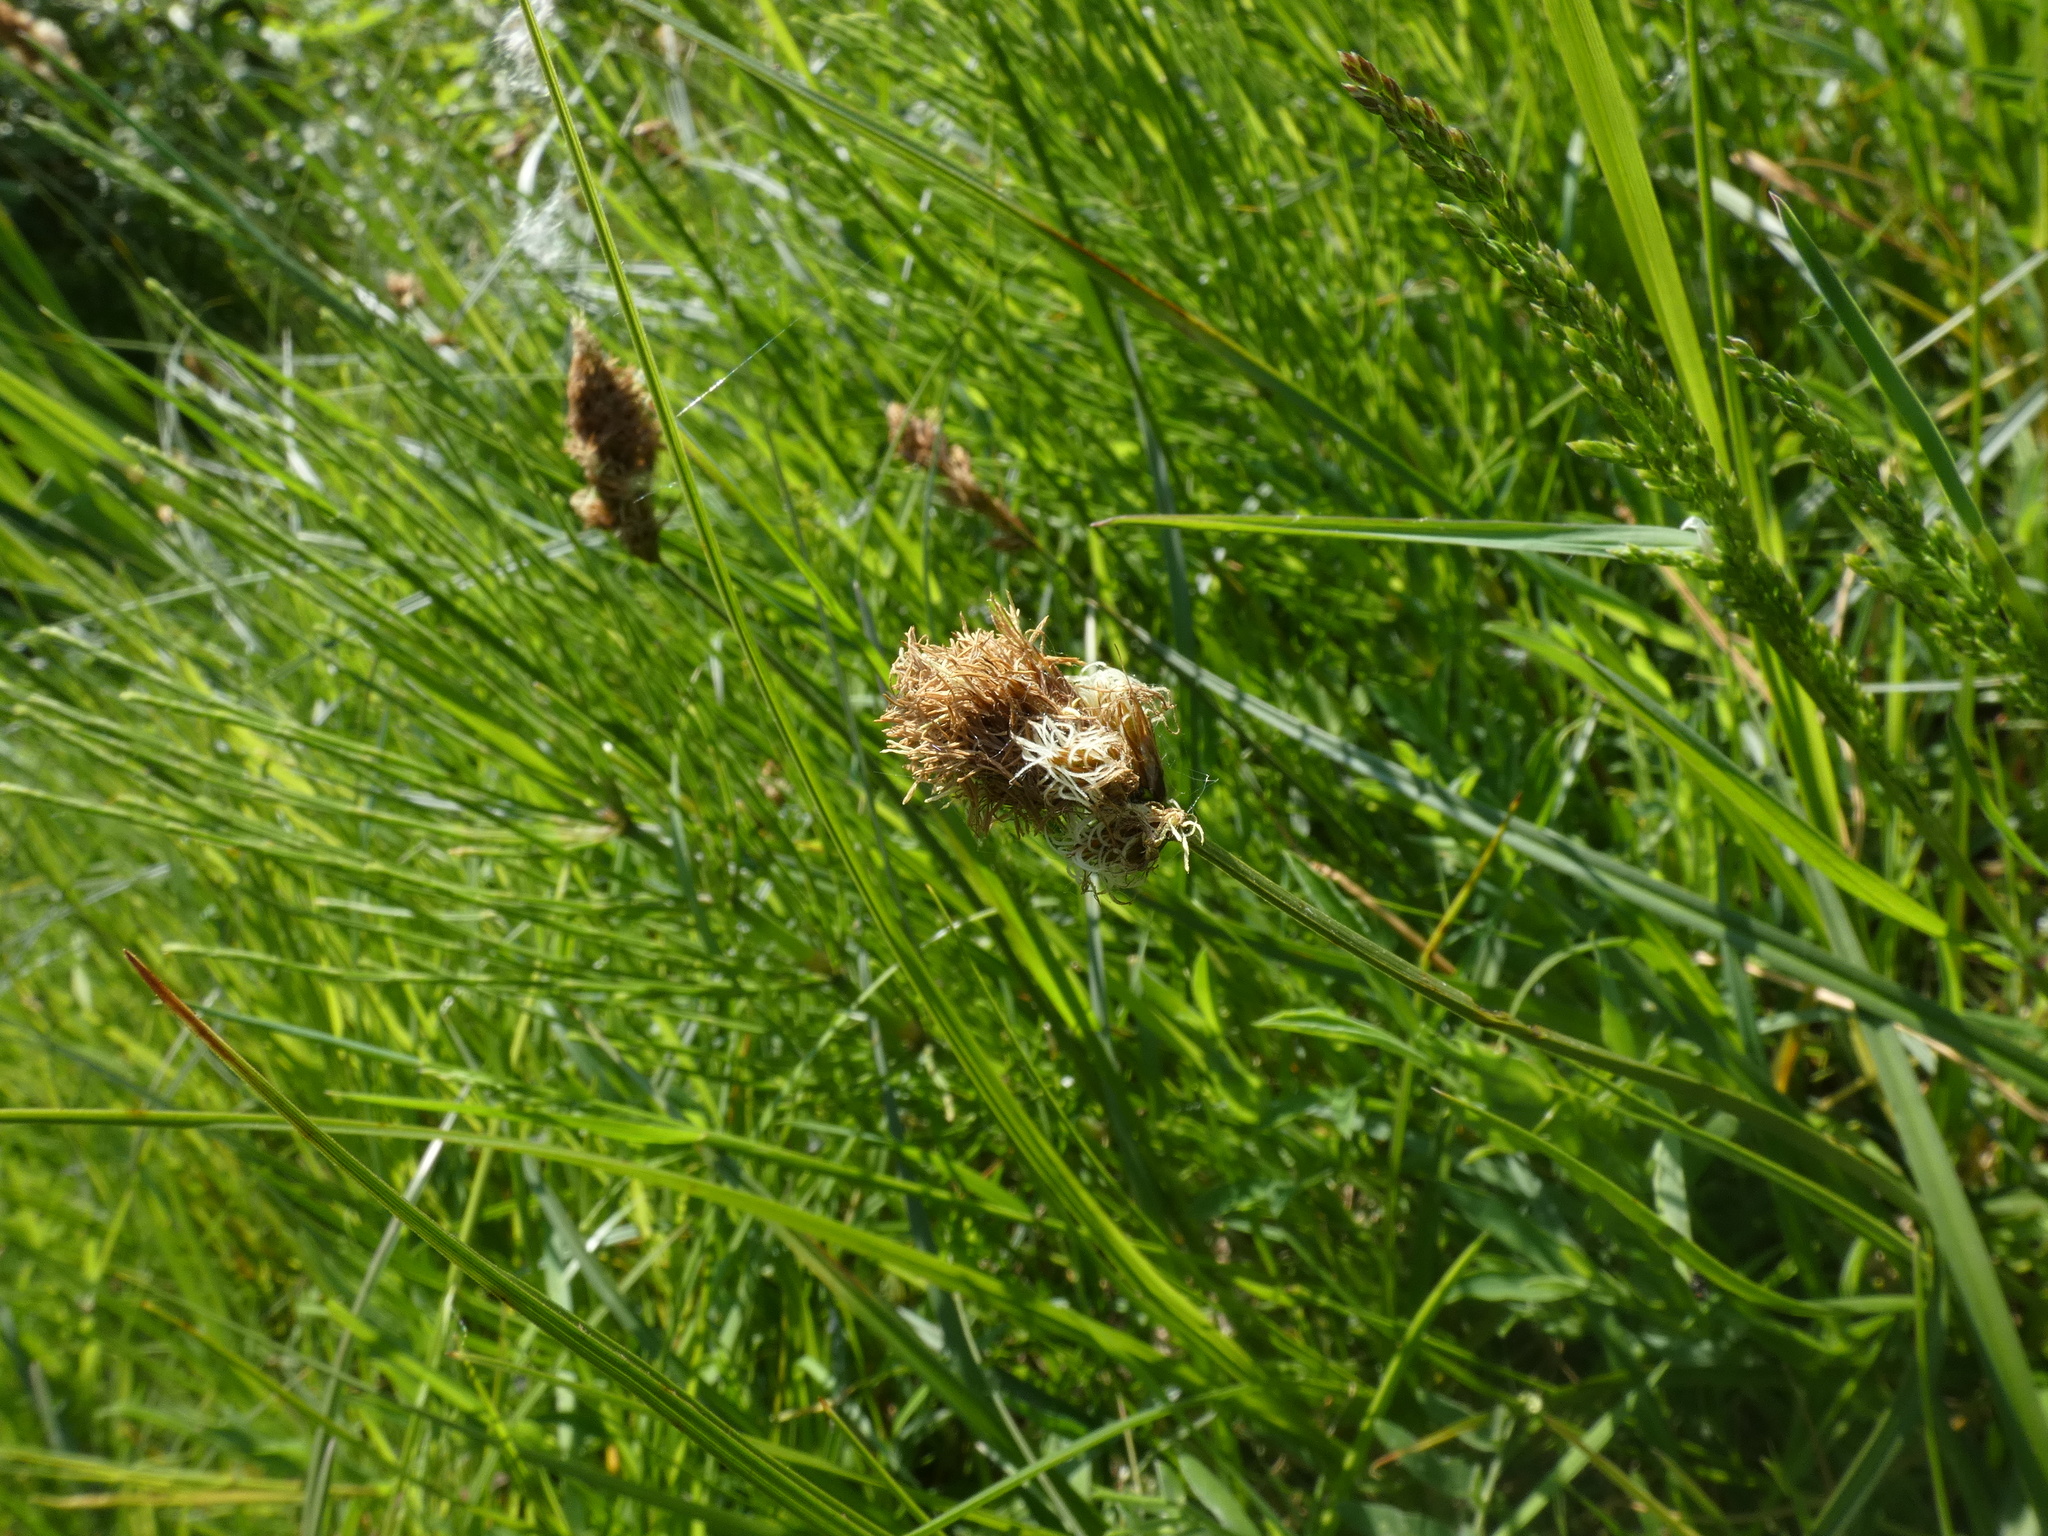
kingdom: Plantae
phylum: Tracheophyta
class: Liliopsida
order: Poales
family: Cyperaceae
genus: Carex
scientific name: Carex disticha
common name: Brown sedge
